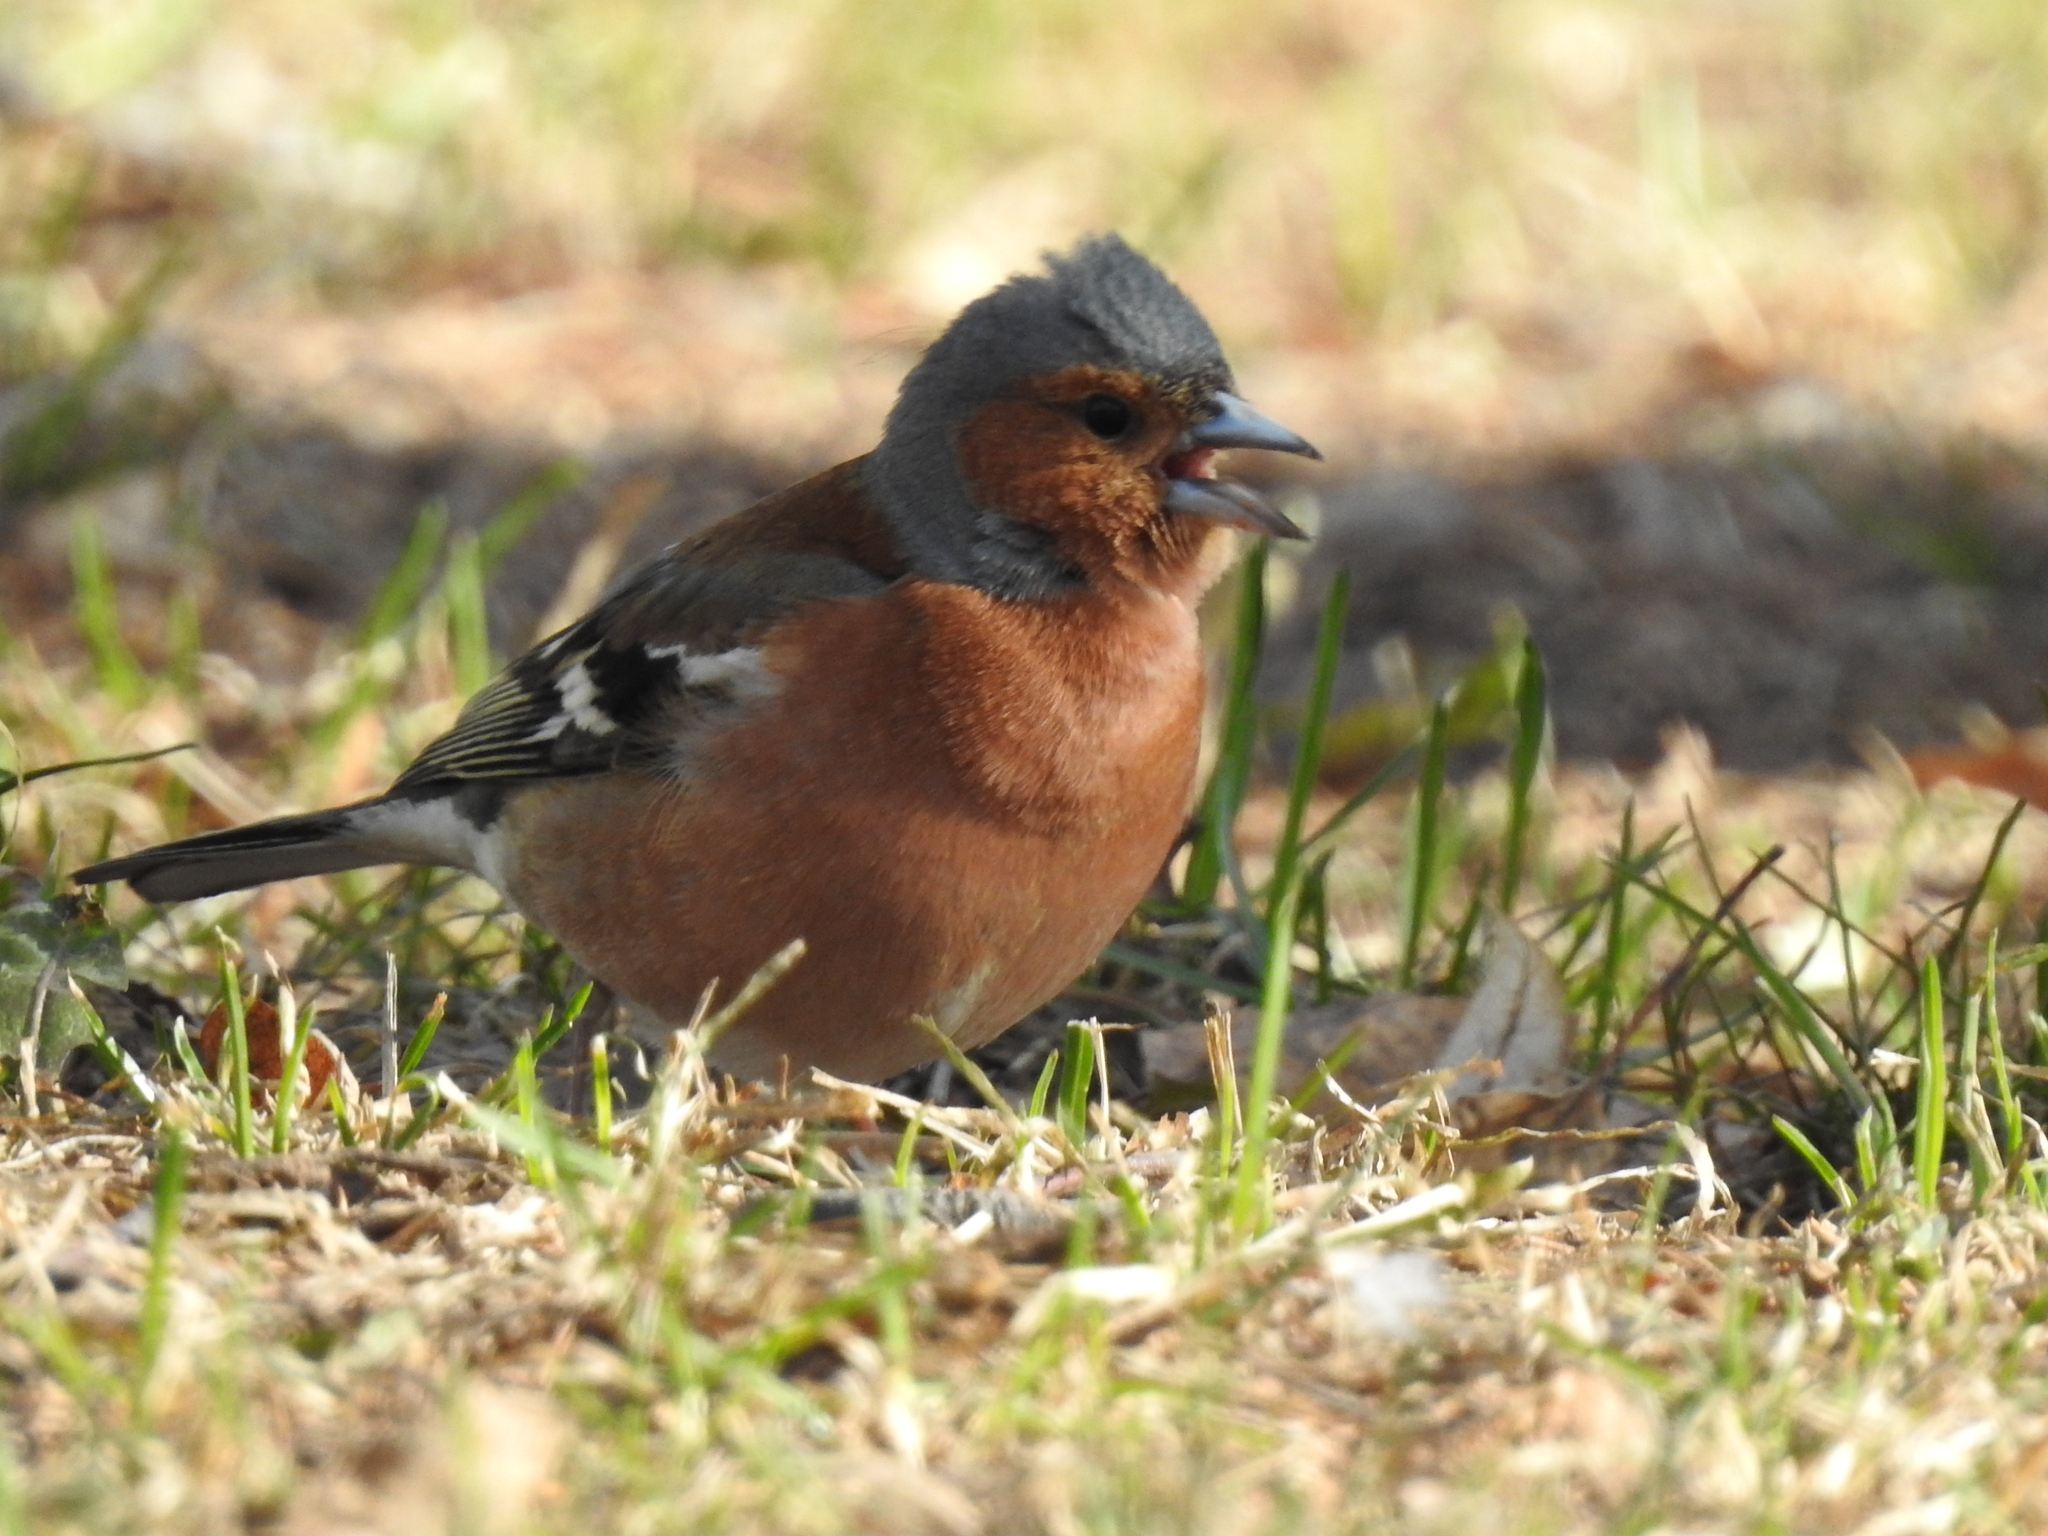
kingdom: Animalia
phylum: Chordata
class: Aves
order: Passeriformes
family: Fringillidae
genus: Fringilla
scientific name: Fringilla coelebs
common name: Common chaffinch
